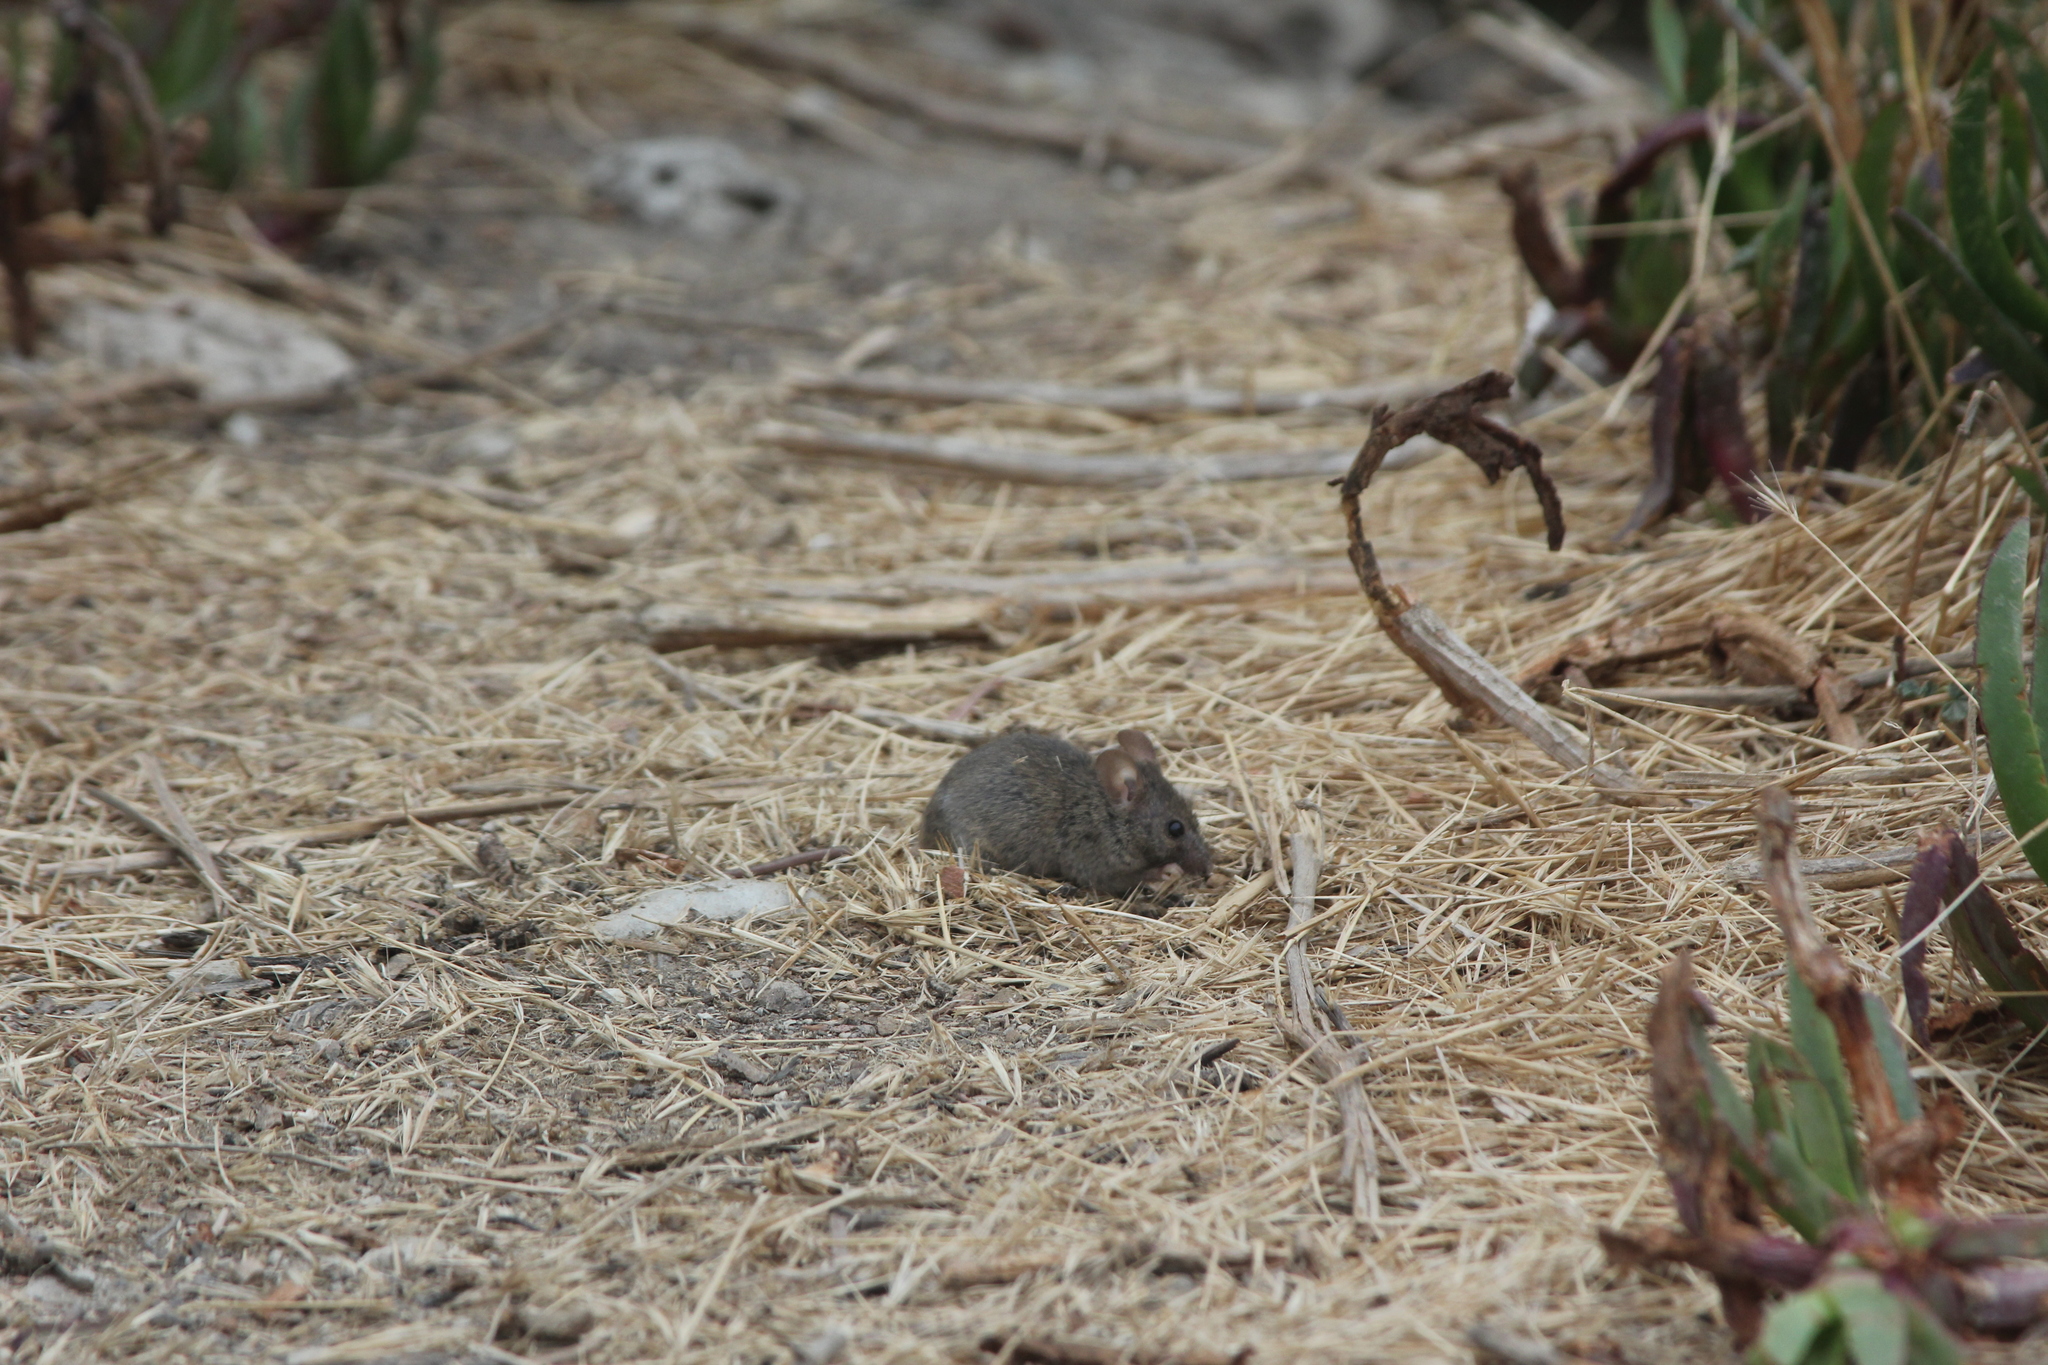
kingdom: Animalia
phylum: Chordata
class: Mammalia
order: Rodentia
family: Muridae
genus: Mus
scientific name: Mus musculus
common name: House mouse
